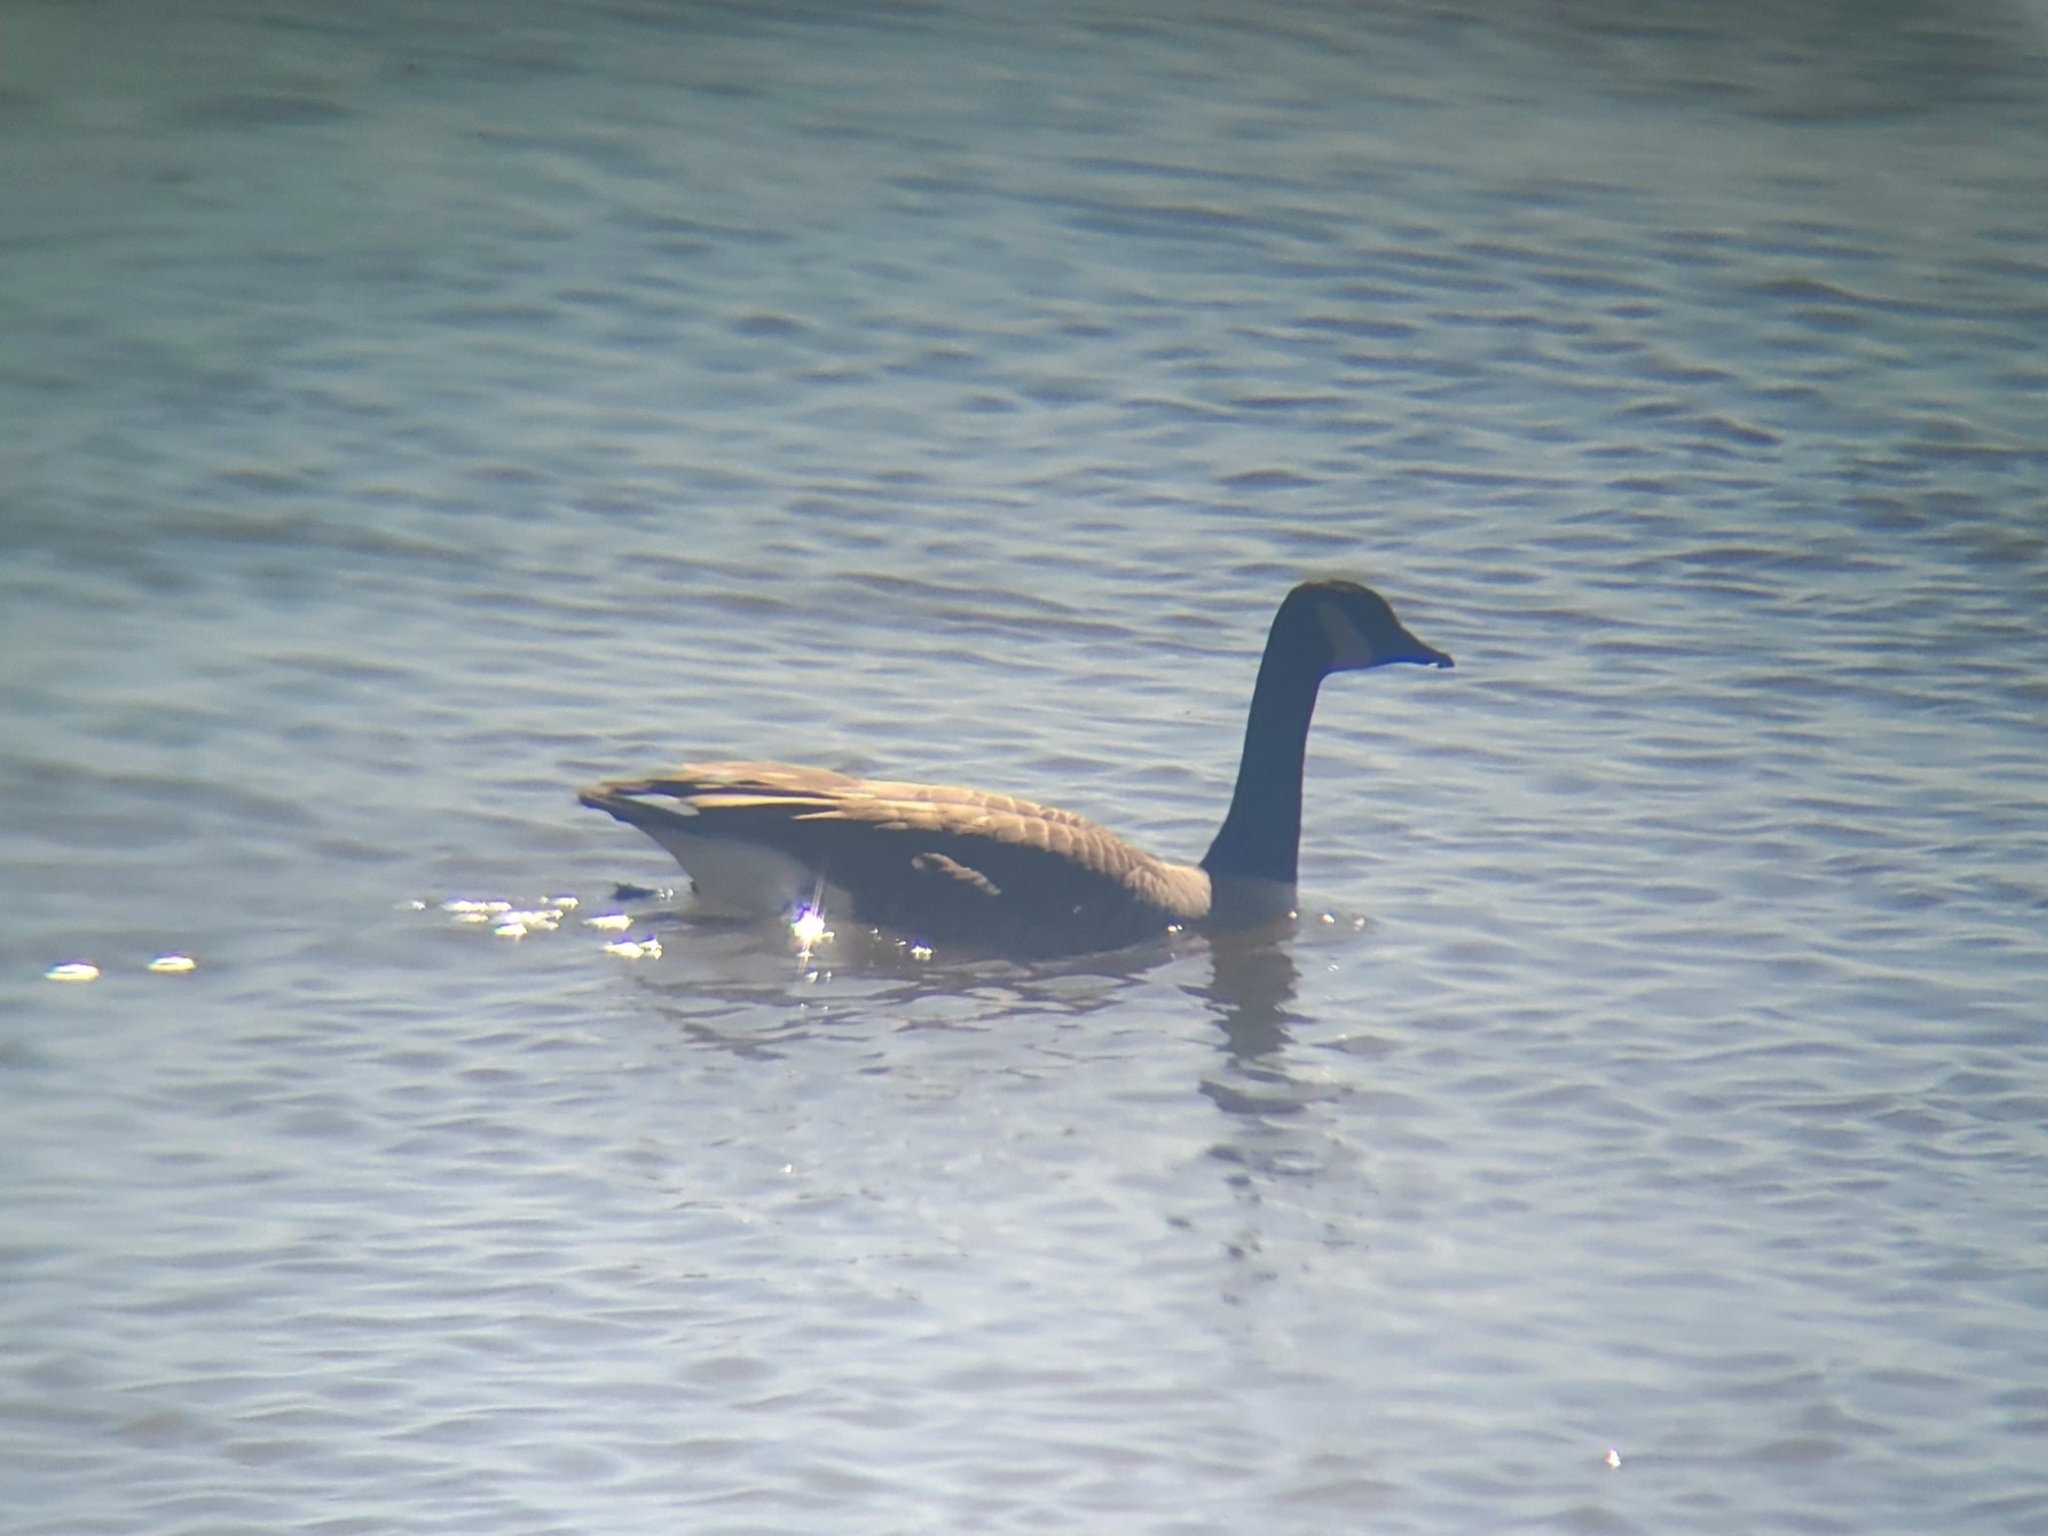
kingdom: Animalia
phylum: Chordata
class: Aves
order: Anseriformes
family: Anatidae
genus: Branta
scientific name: Branta canadensis
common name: Canada goose
